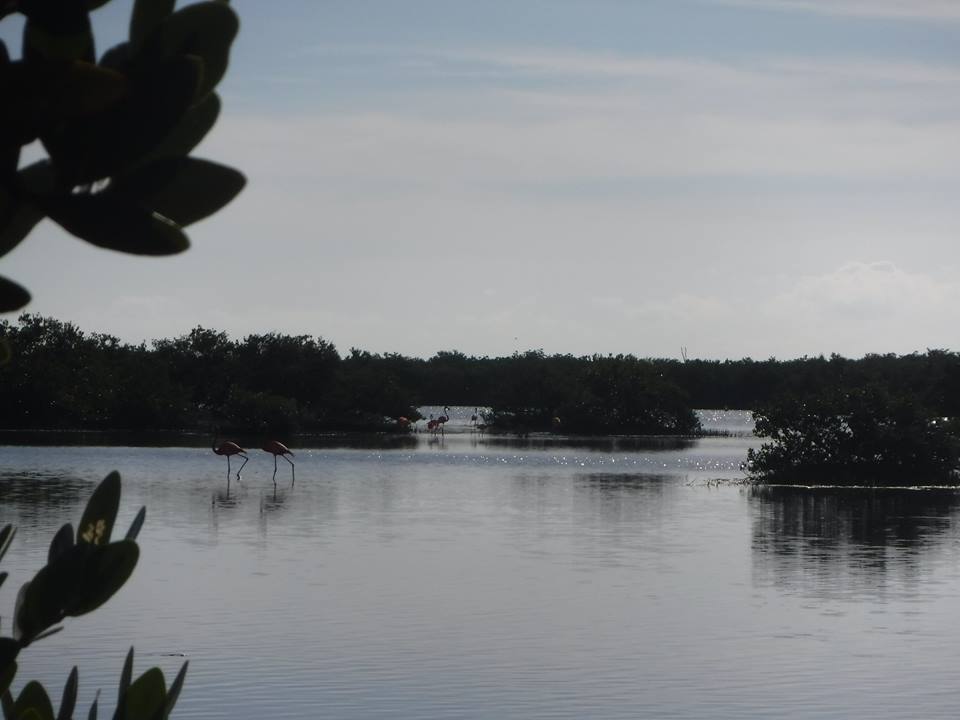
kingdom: Animalia
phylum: Chordata
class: Aves
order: Phoenicopteriformes
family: Phoenicopteridae
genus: Phoenicopterus
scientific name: Phoenicopterus ruber
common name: American flamingo
